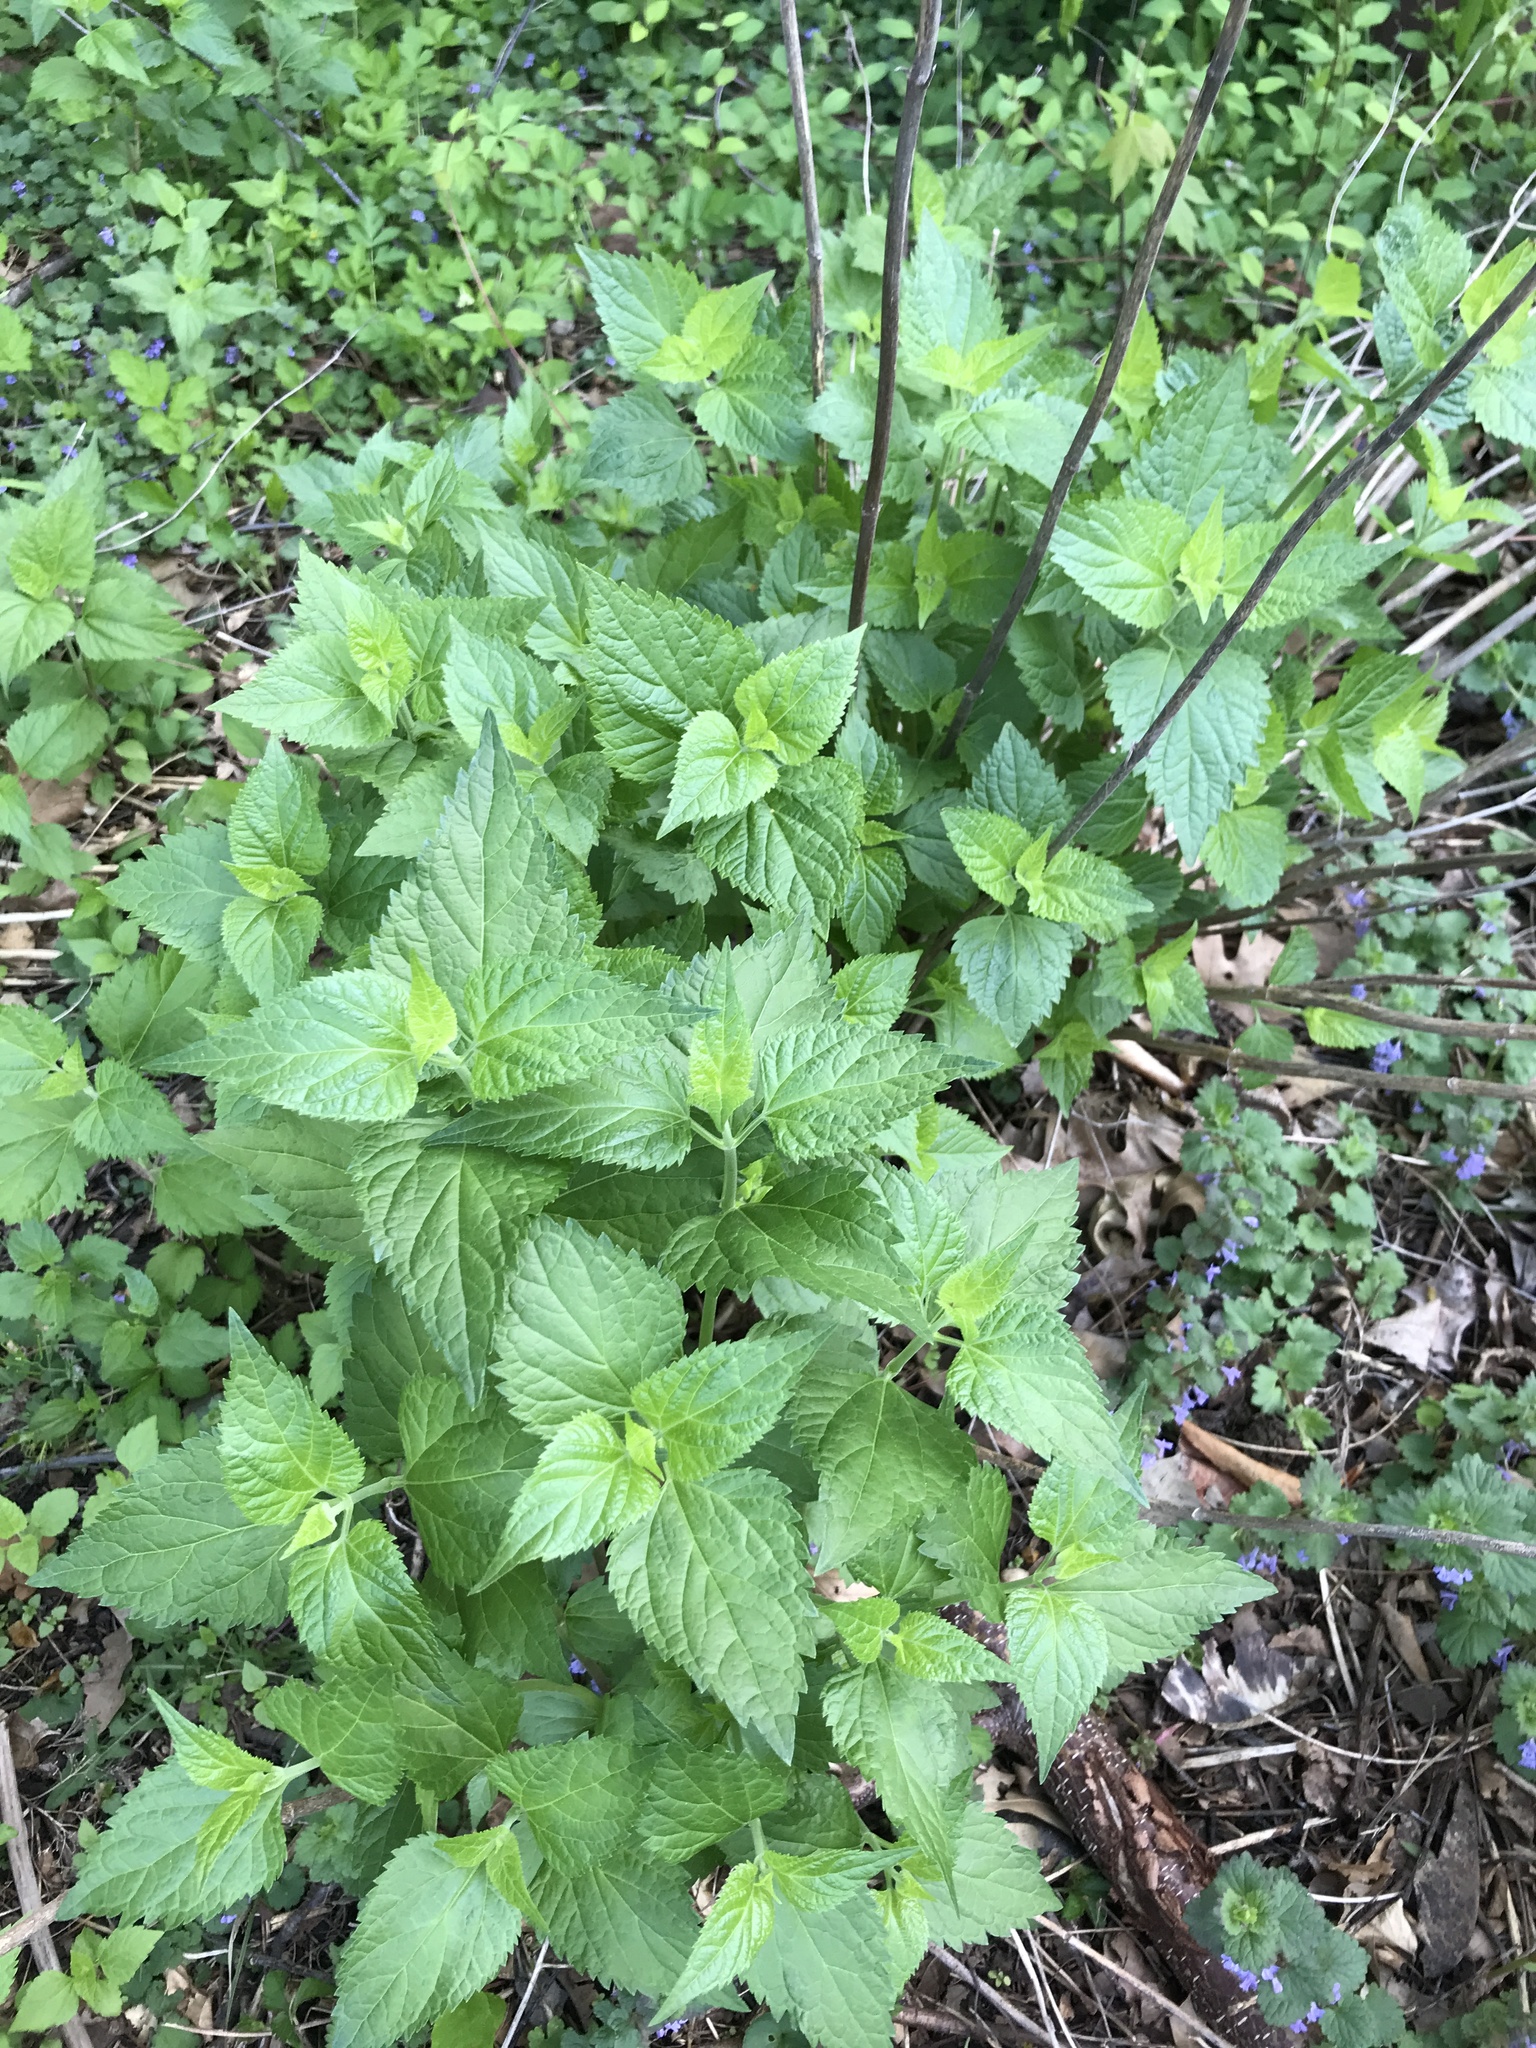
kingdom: Plantae
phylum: Tracheophyta
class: Magnoliopsida
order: Asterales
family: Asteraceae
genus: Ageratina
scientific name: Ageratina altissima
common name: White snakeroot
